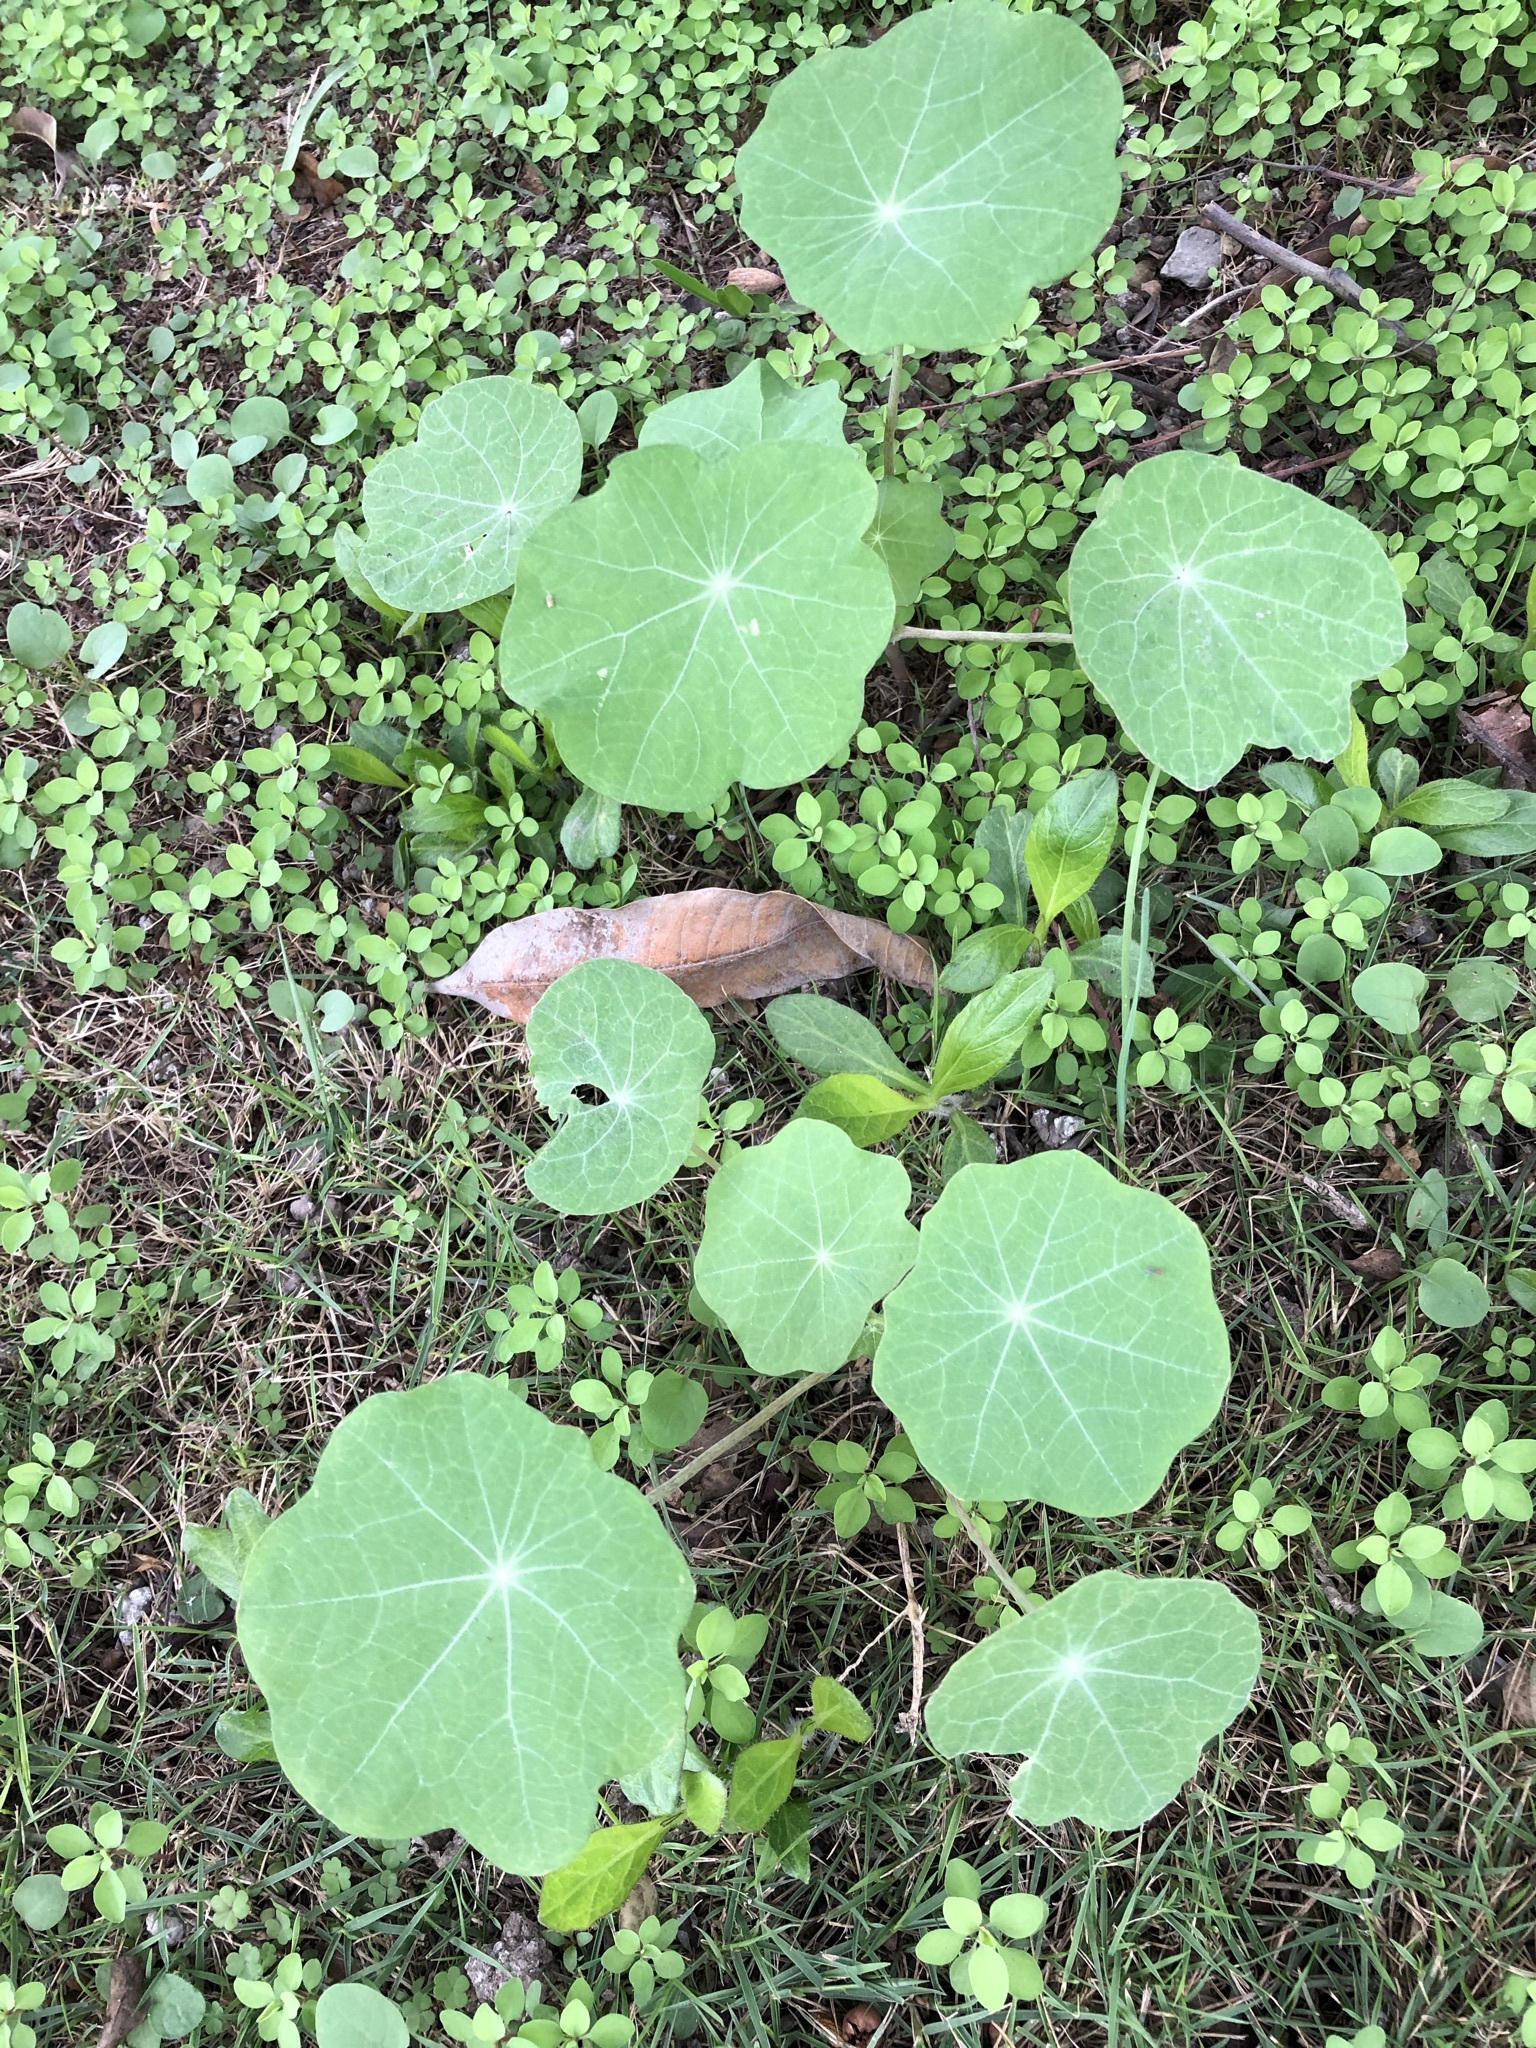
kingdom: Plantae
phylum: Tracheophyta
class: Magnoliopsida
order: Brassicales
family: Tropaeolaceae
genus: Tropaeolum
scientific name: Tropaeolum majus
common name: Nasturtium
